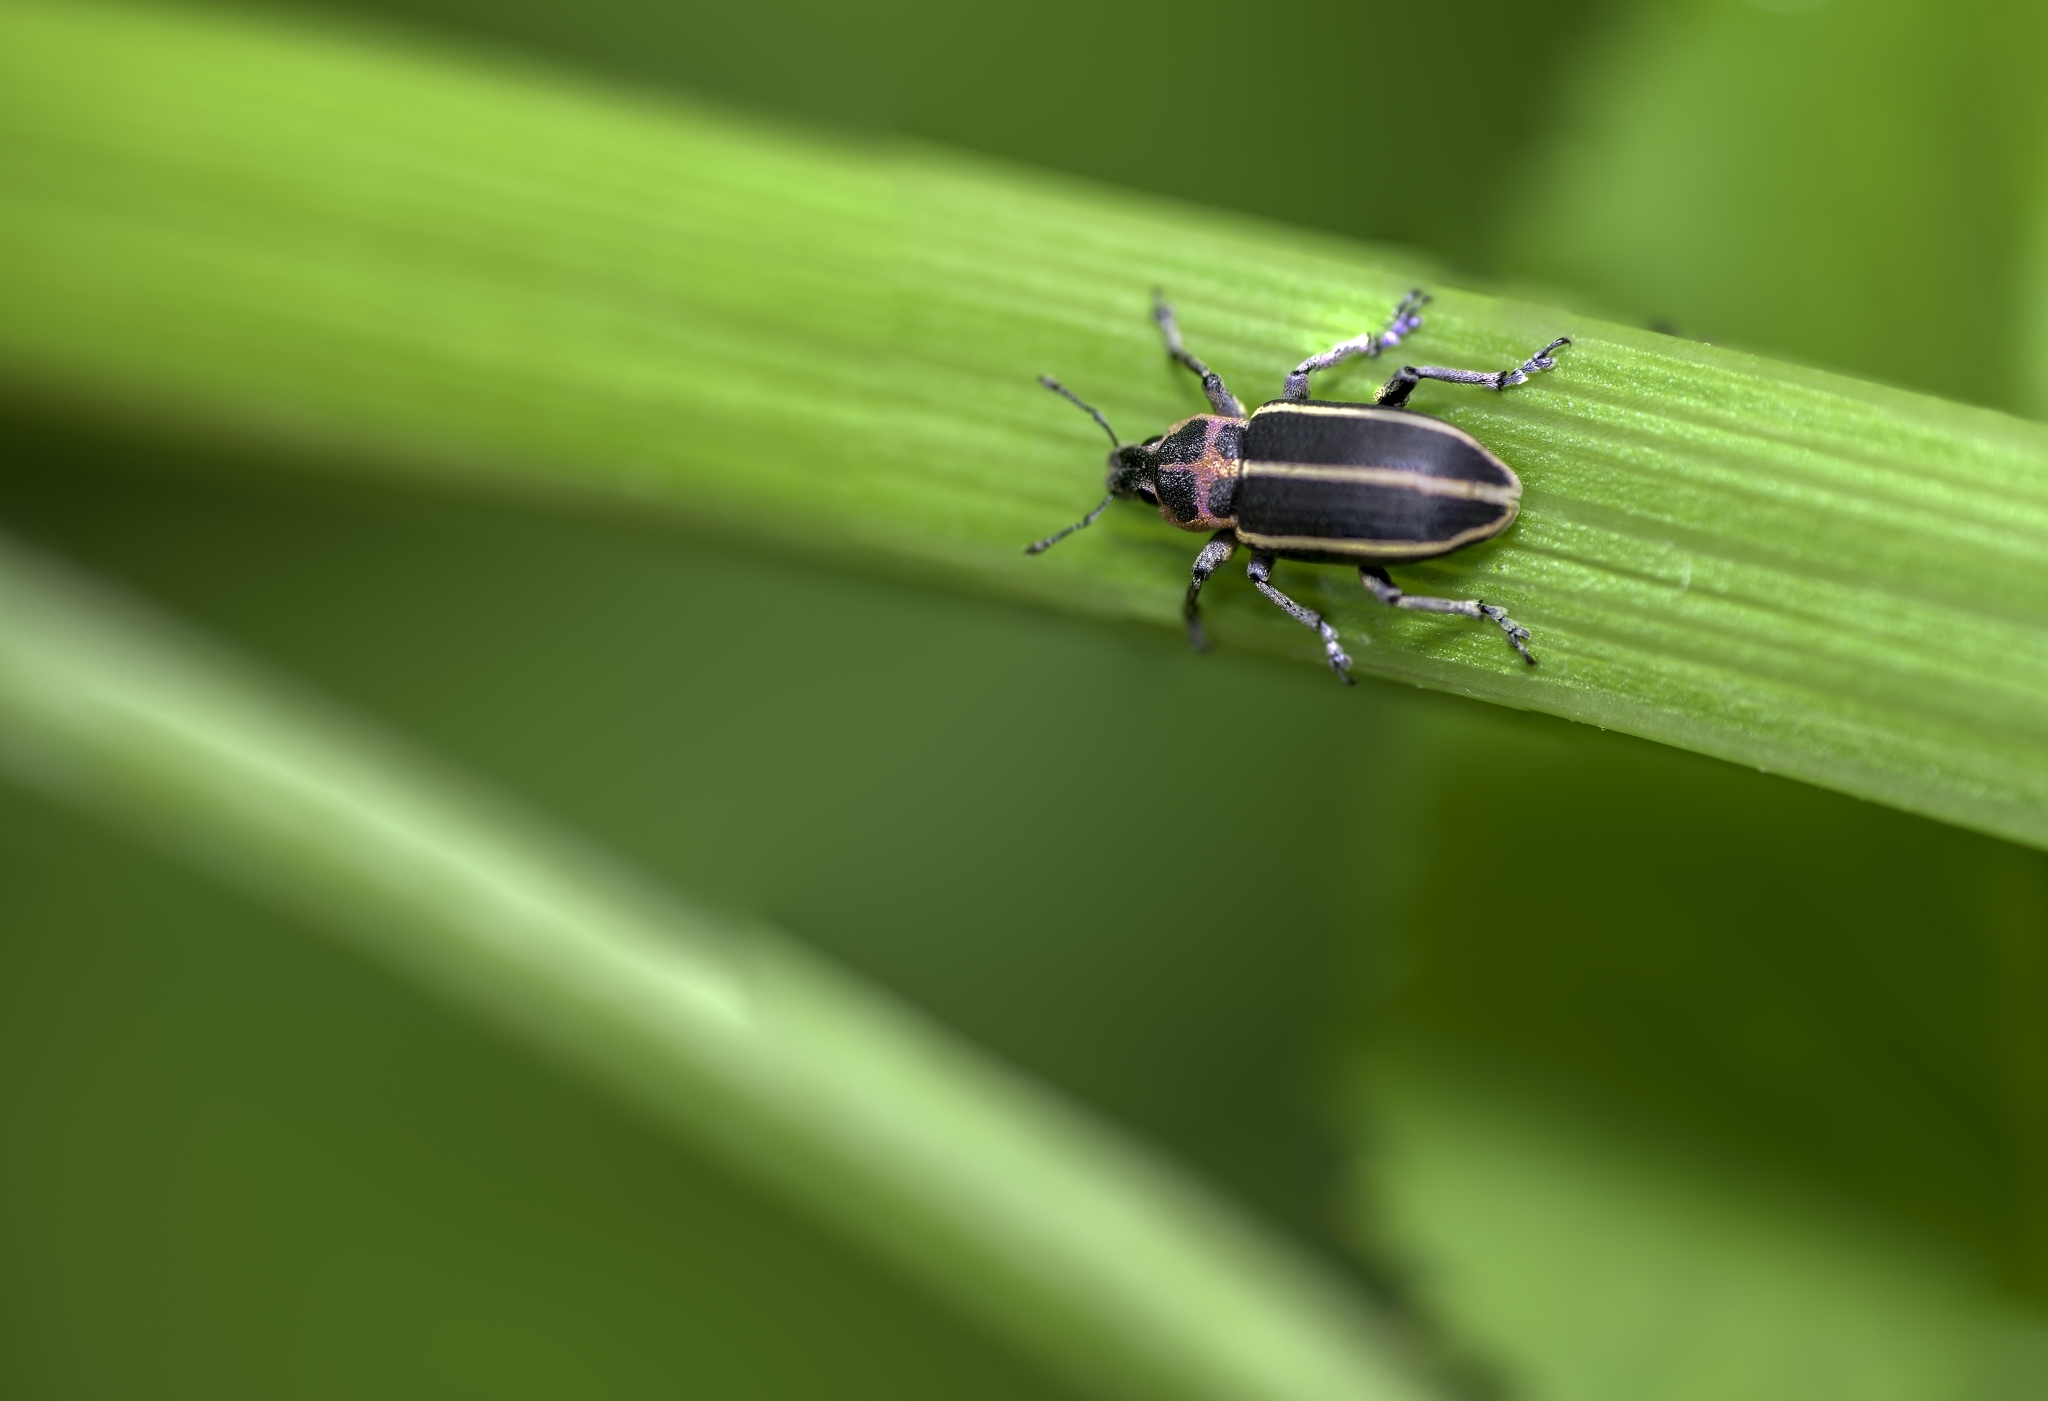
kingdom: Animalia
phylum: Arthropoda
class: Insecta
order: Coleoptera
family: Curculionidae
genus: Eudiagogus
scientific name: Eudiagogus maryae
